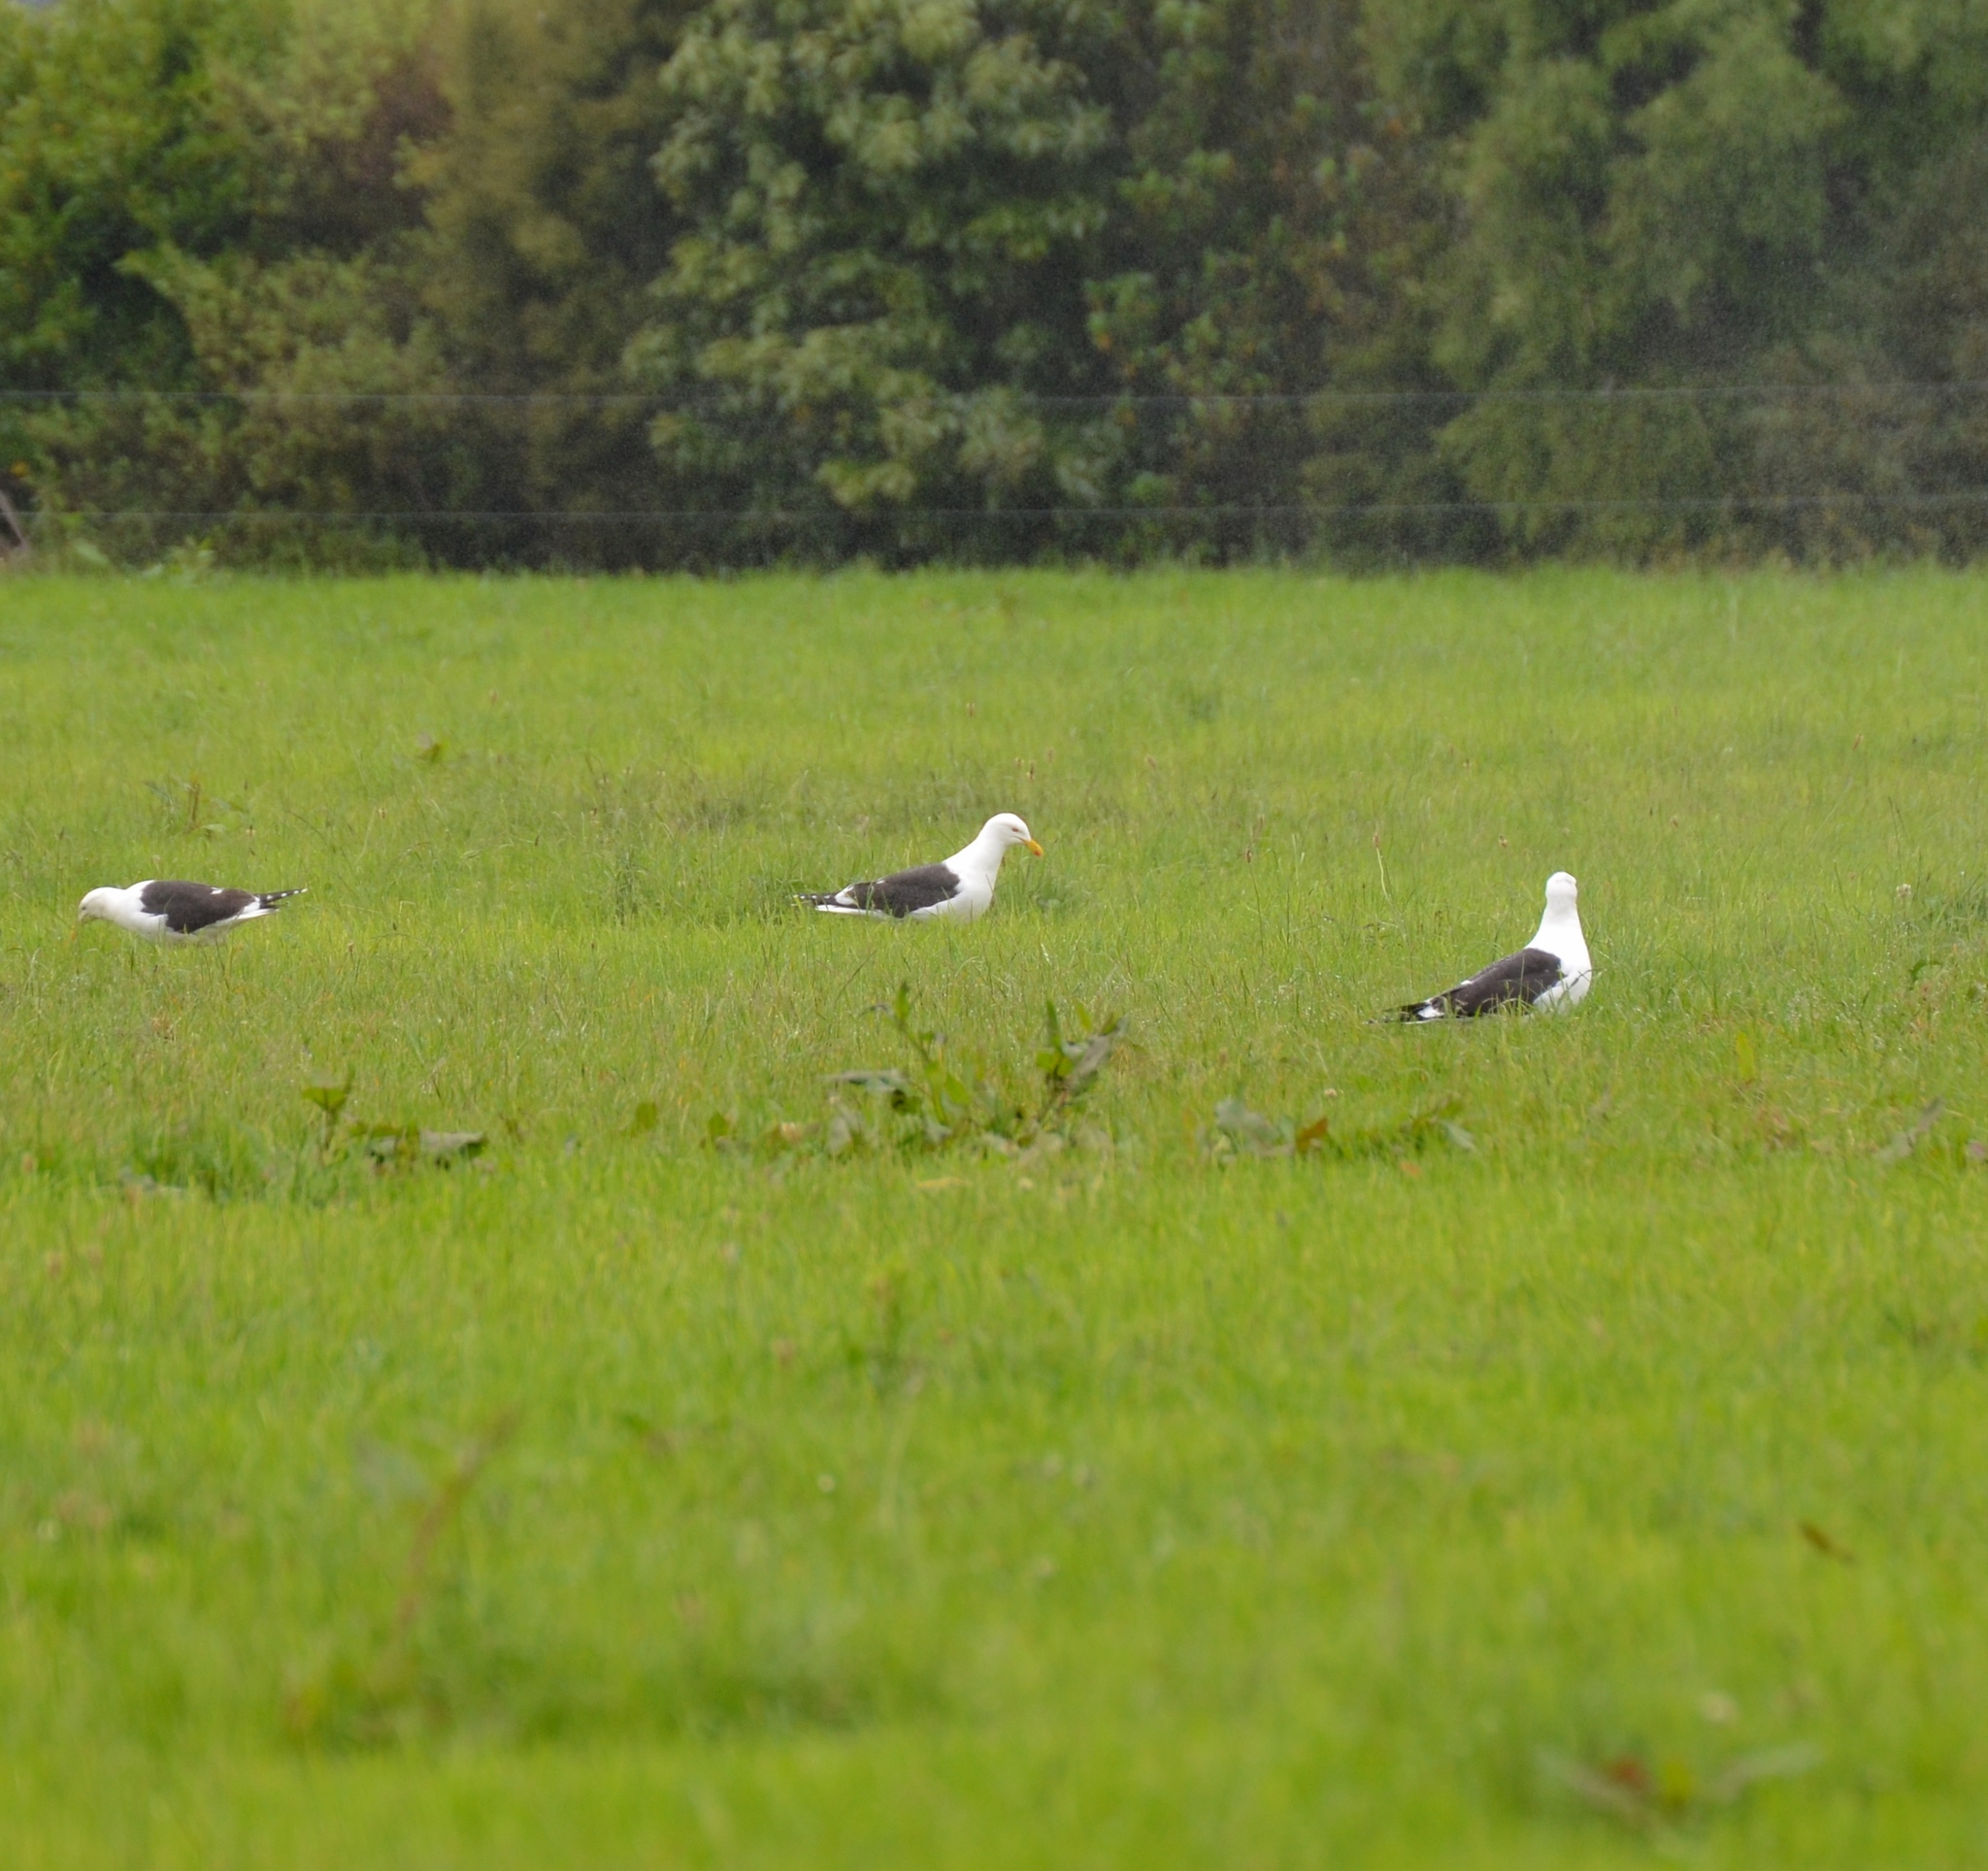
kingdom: Animalia
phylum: Chordata
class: Aves
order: Charadriiformes
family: Laridae
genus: Larus
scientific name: Larus dominicanus
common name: Kelp gull
